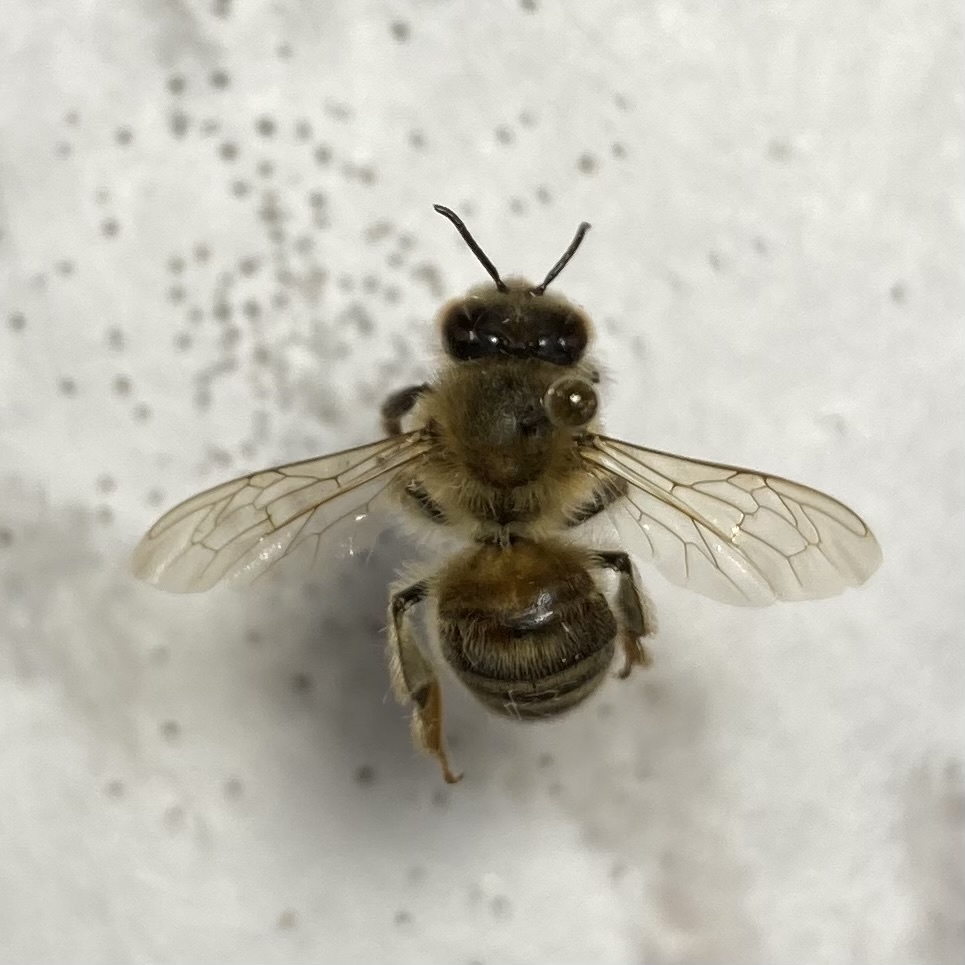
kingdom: Animalia
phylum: Arthropoda
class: Insecta
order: Hymenoptera
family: Apidae
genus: Apis
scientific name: Apis mellifera
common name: Honey bee
